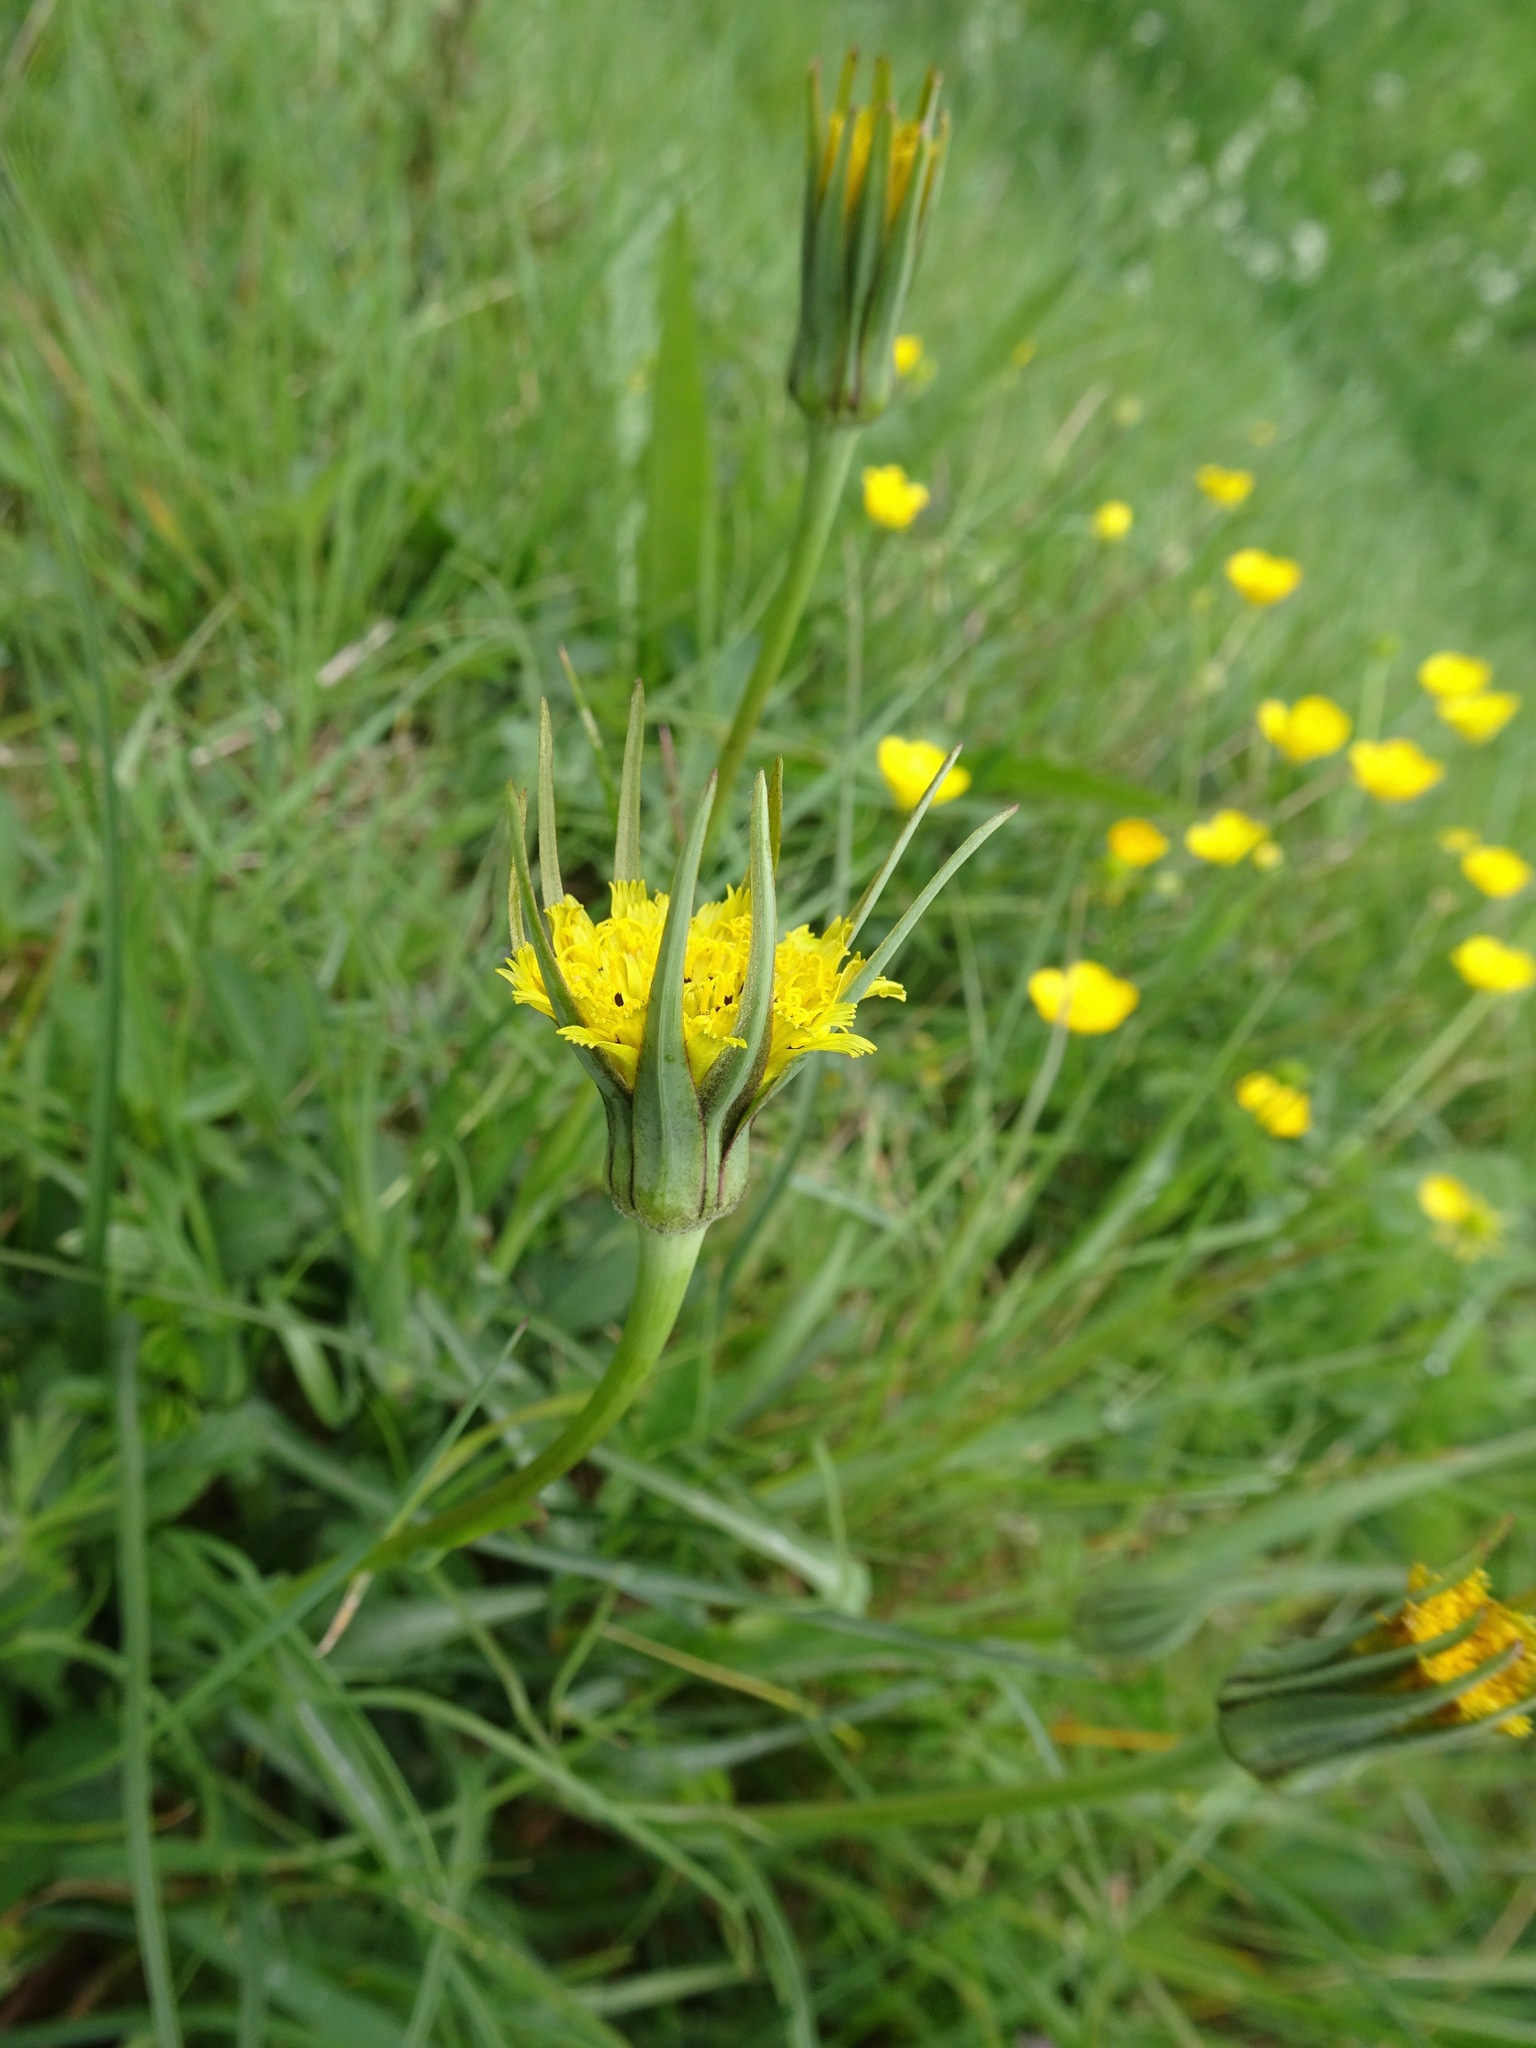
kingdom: Plantae
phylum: Tracheophyta
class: Magnoliopsida
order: Asterales
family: Asteraceae
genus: Tragopogon
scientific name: Tragopogon minor
